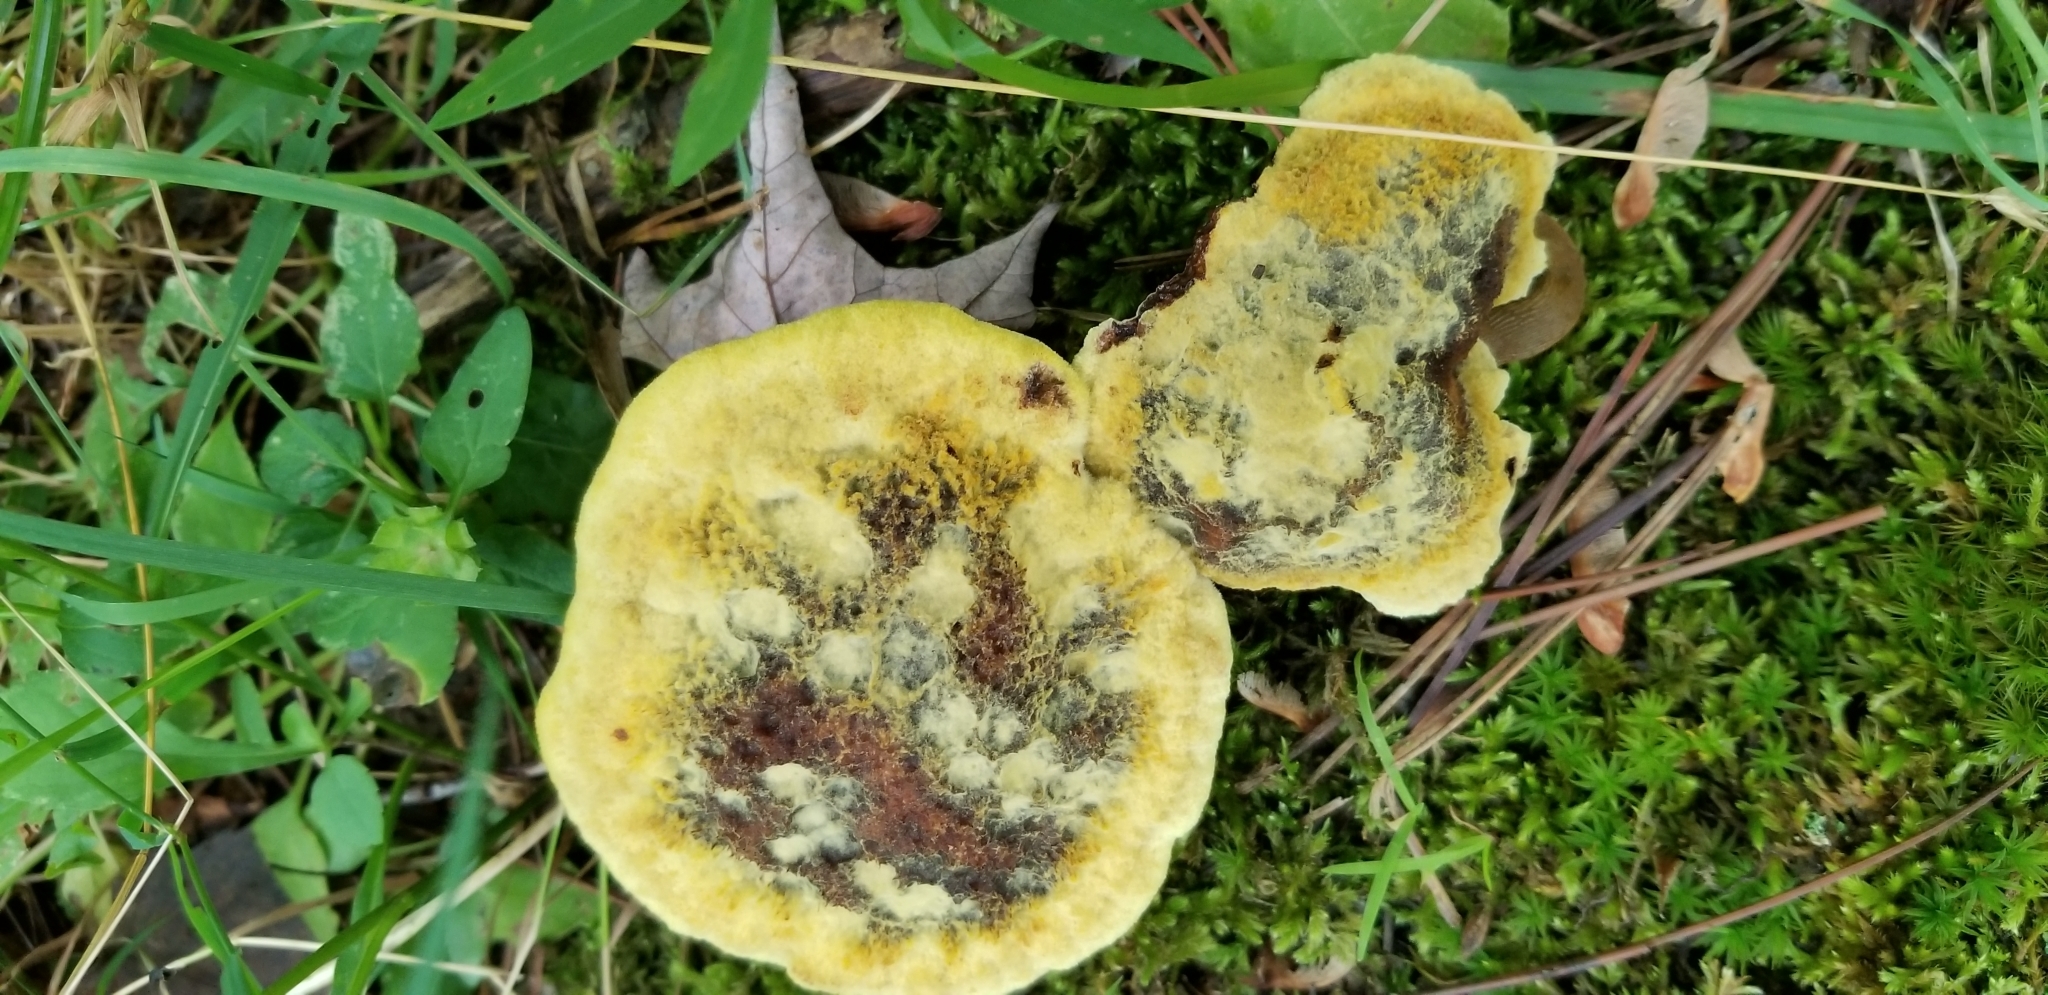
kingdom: Fungi
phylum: Basidiomycota
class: Agaricomycetes
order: Polyporales
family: Laetiporaceae
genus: Phaeolus
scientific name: Phaeolus schweinitzii
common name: Dyer's mazegill
